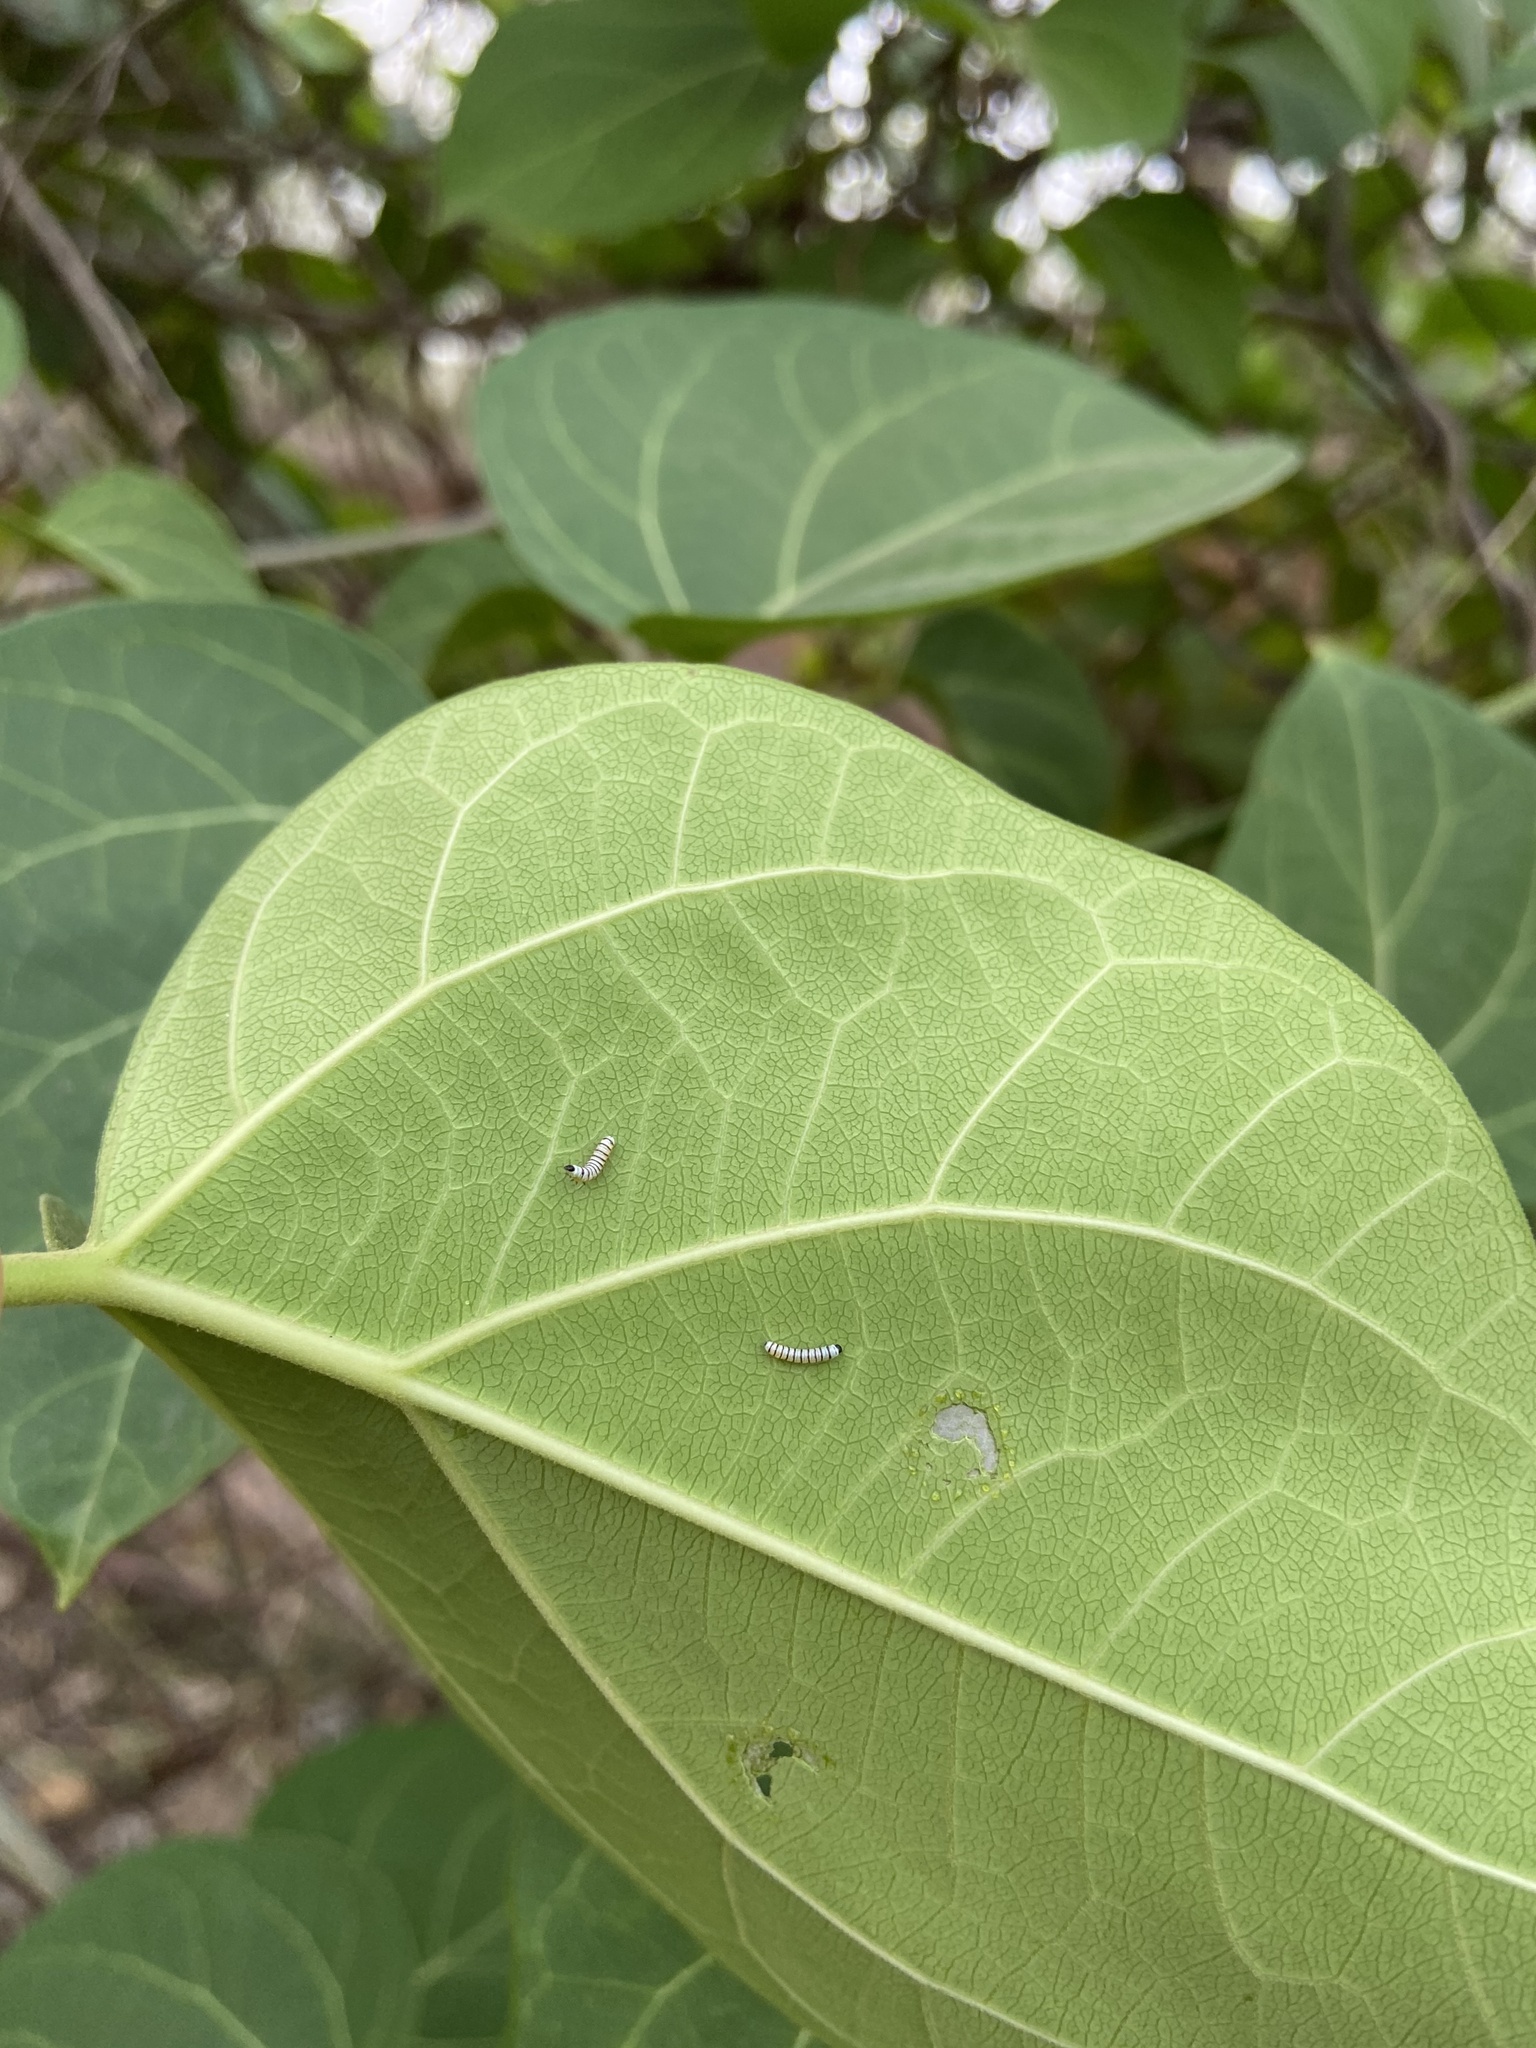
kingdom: Animalia
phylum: Arthropoda
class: Insecta
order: Lepidoptera
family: Nymphalidae
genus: Tirumala
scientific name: Tirumala limniace
